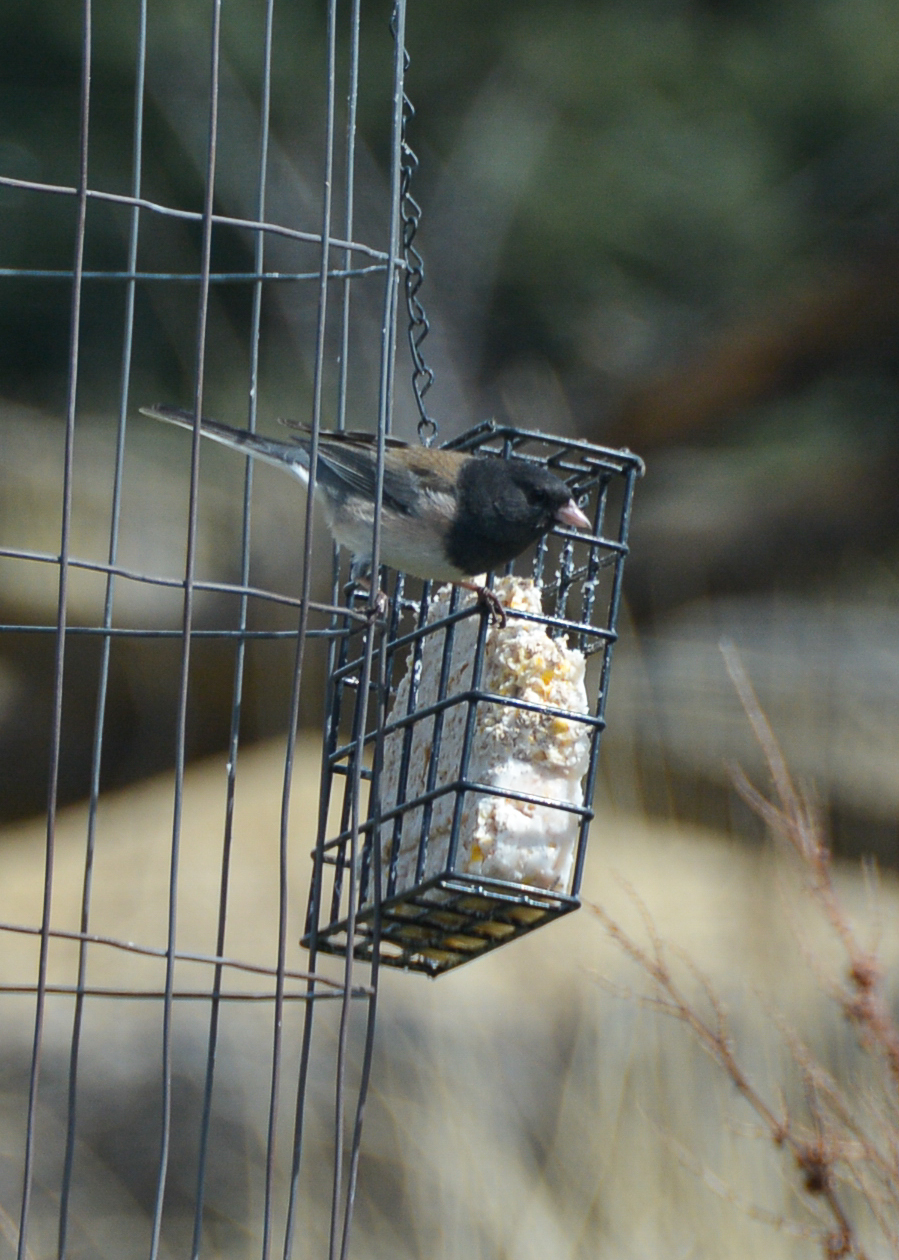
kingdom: Animalia
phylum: Chordata
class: Aves
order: Passeriformes
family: Passerellidae
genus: Junco
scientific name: Junco hyemalis
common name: Dark-eyed junco
